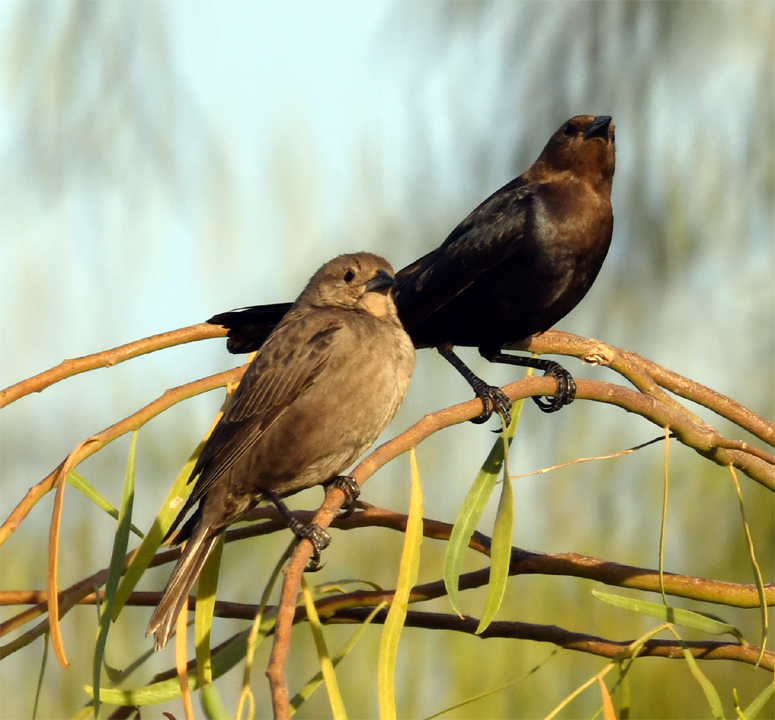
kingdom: Animalia
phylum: Chordata
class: Aves
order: Passeriformes
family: Icteridae
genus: Molothrus
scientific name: Molothrus ater
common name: Brown-headed cowbird
